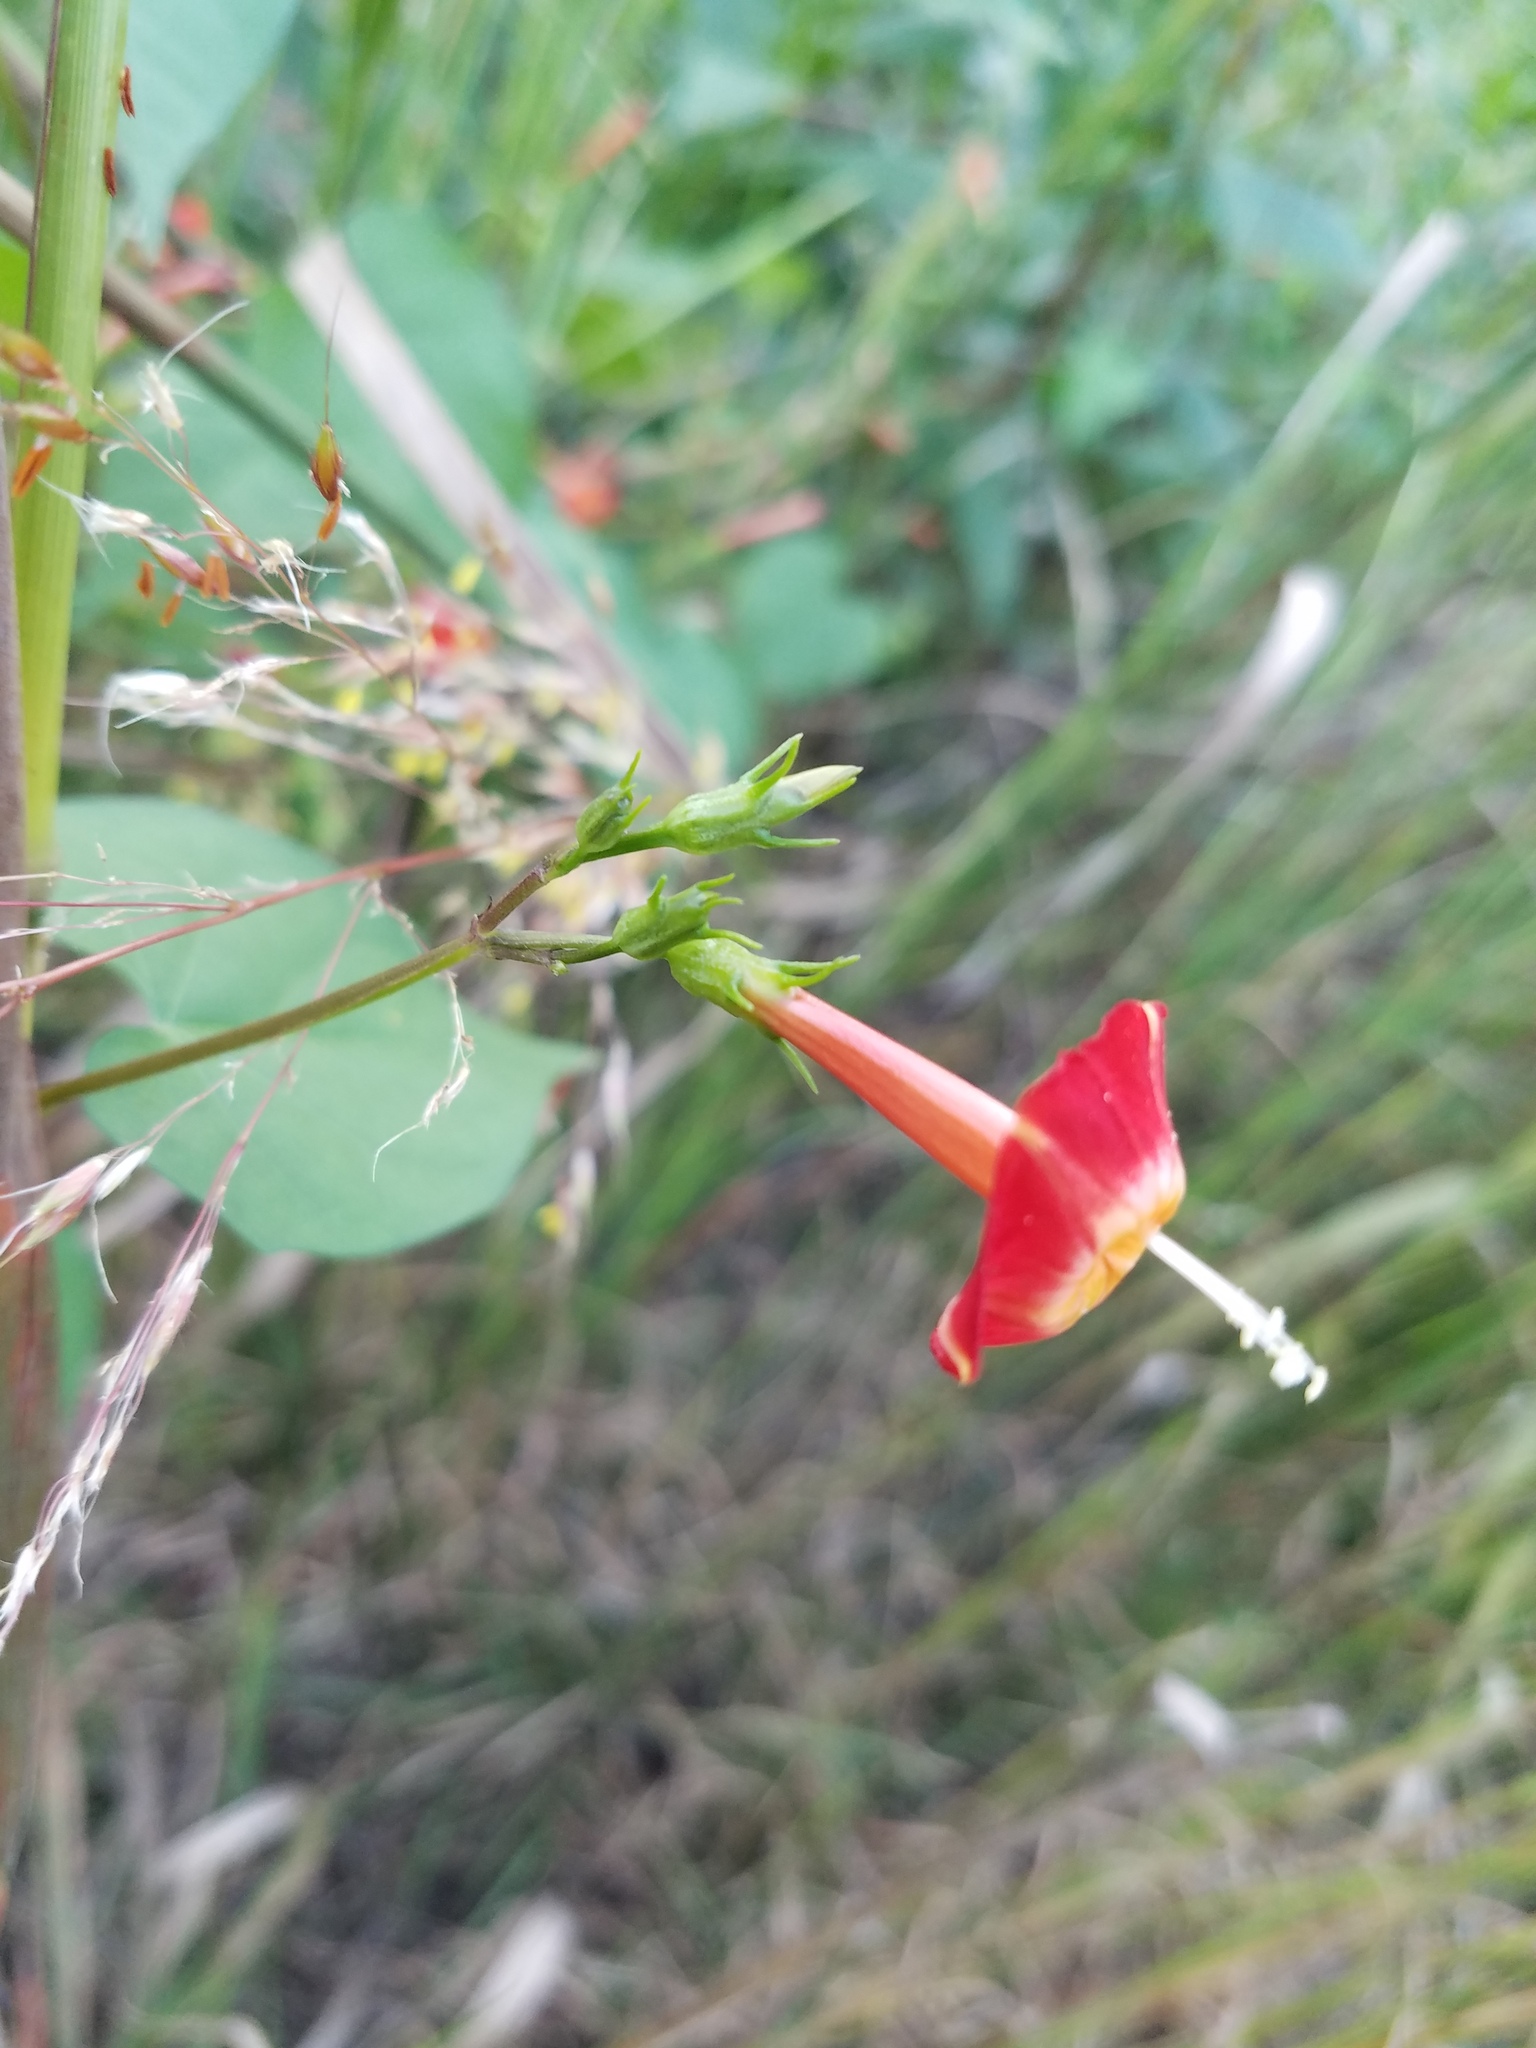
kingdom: Plantae
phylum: Tracheophyta
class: Magnoliopsida
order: Solanales
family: Convolvulaceae
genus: Ipomoea
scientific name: Ipomoea coccinea
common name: Red morning-glory
